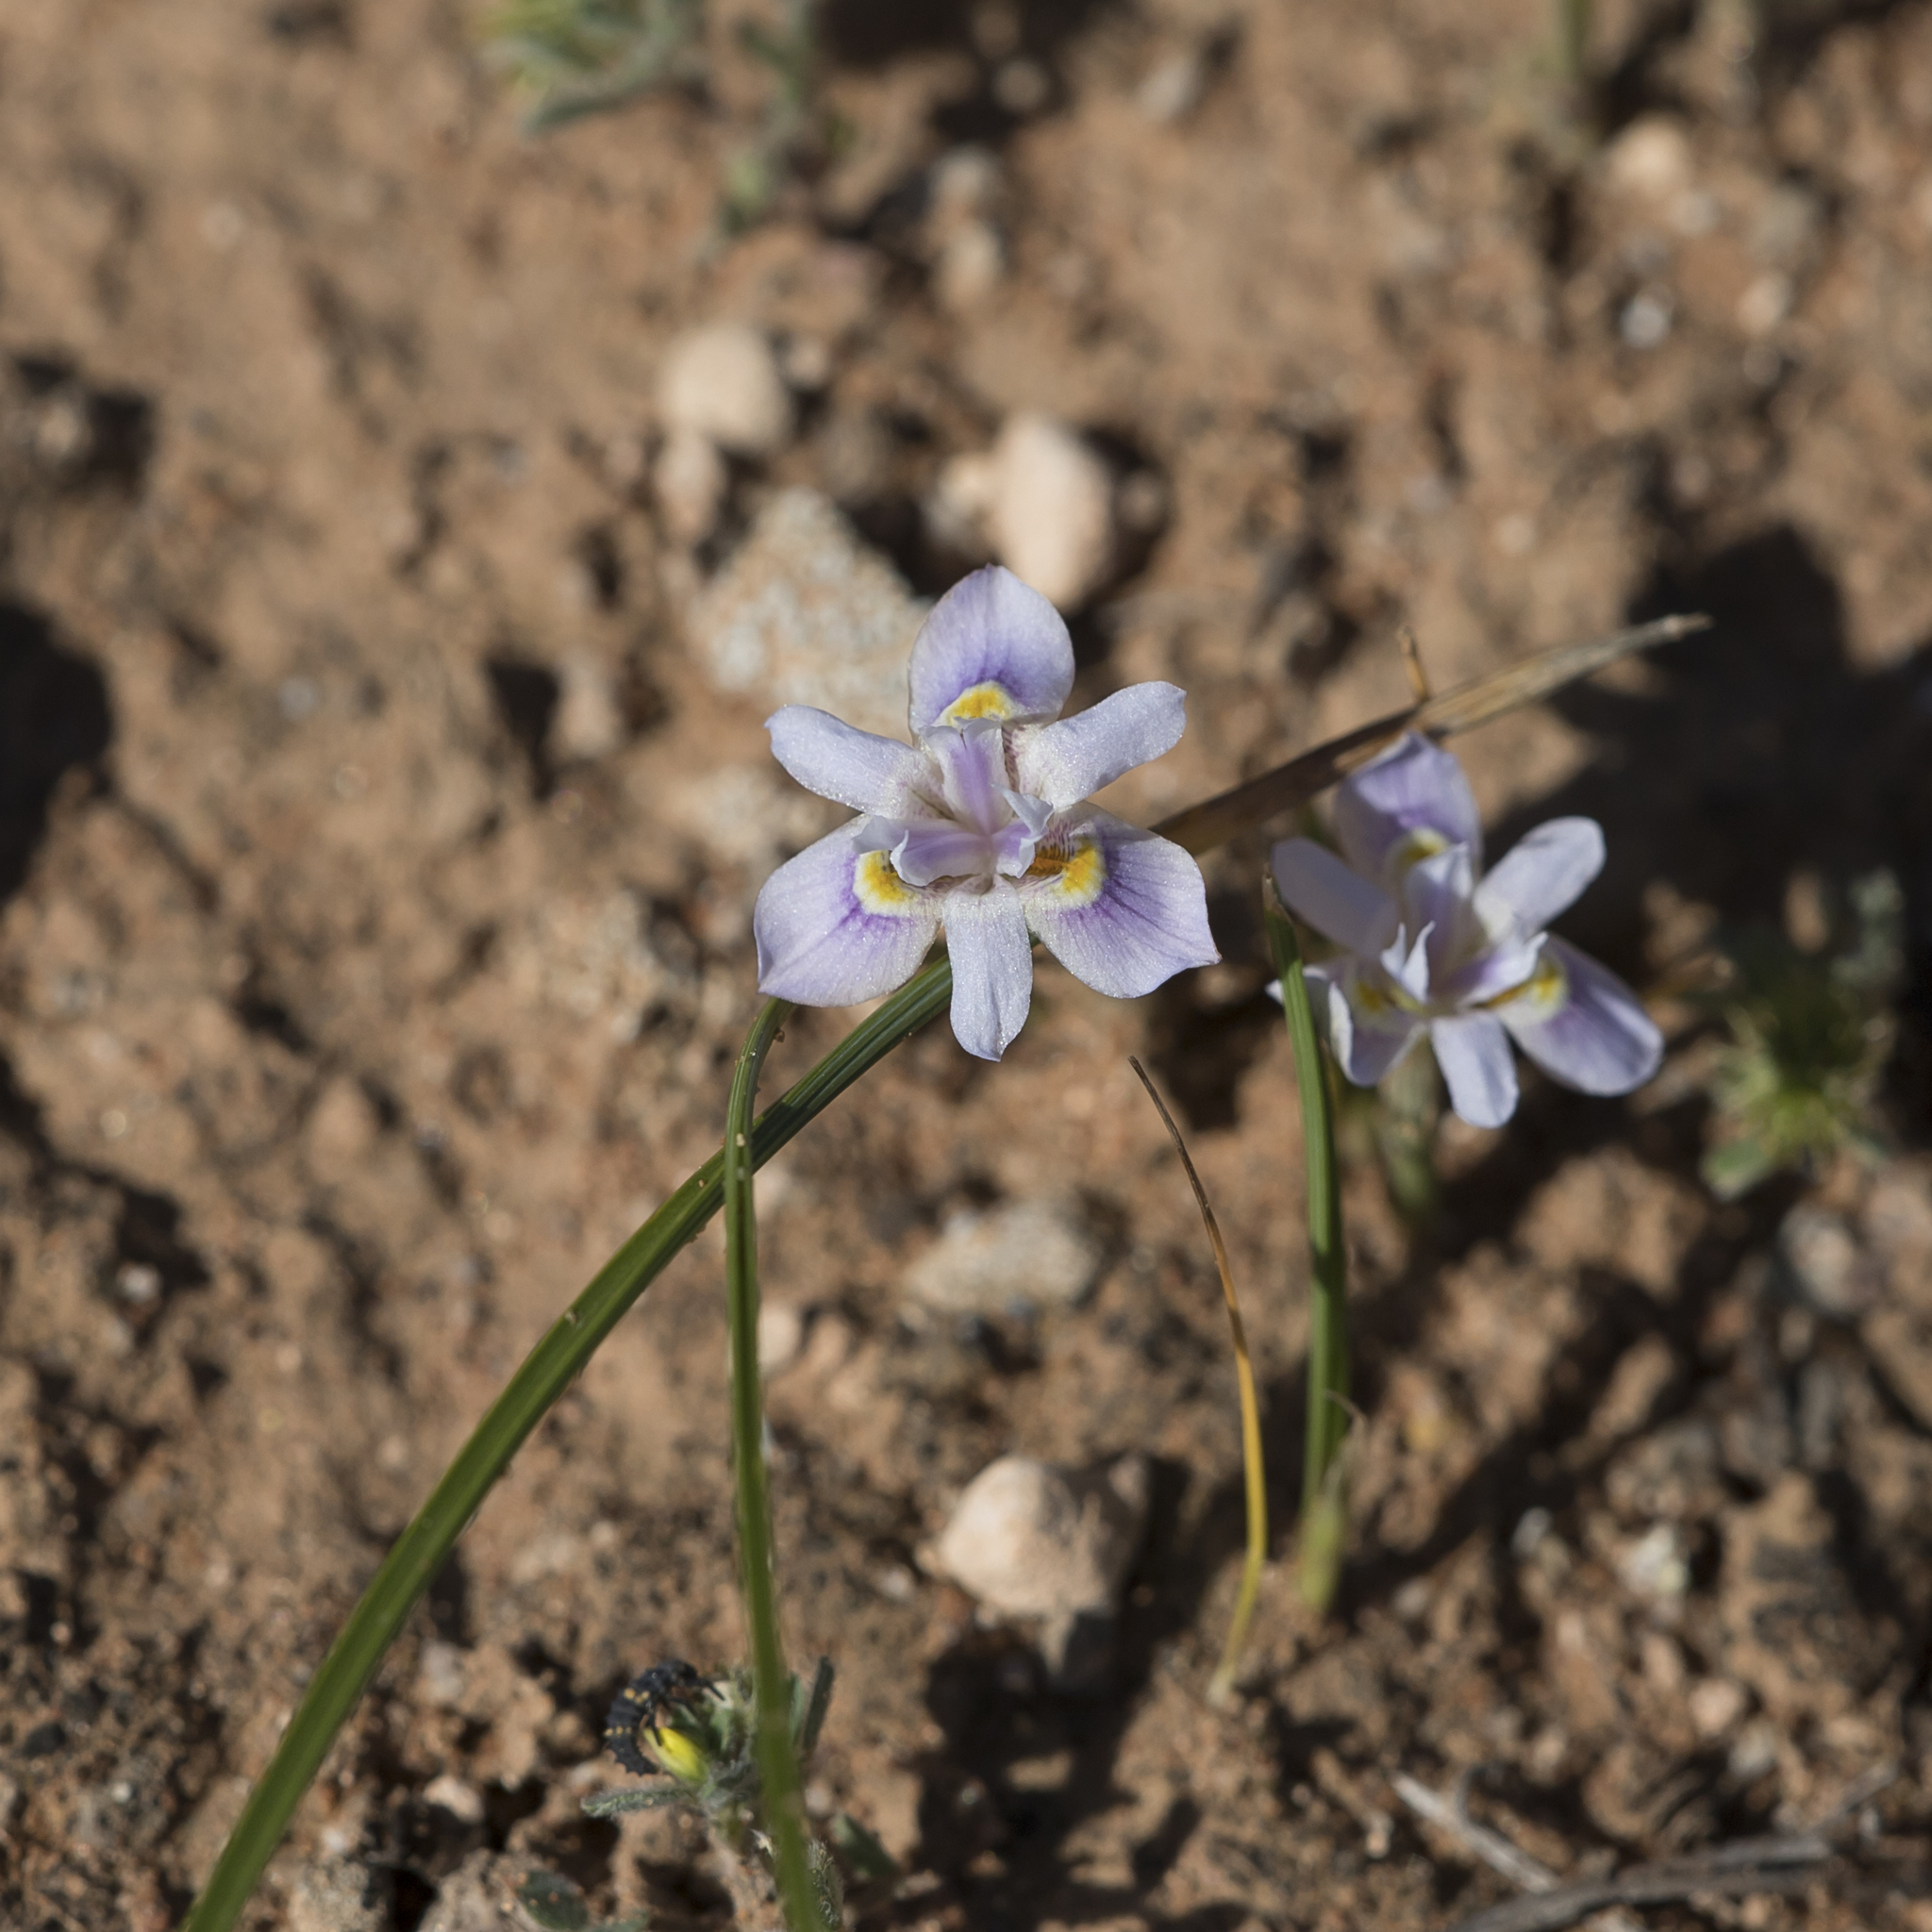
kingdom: Plantae
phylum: Tracheophyta
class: Liliopsida
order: Asparagales
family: Iridaceae
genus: Moraea
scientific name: Moraea setifolia
